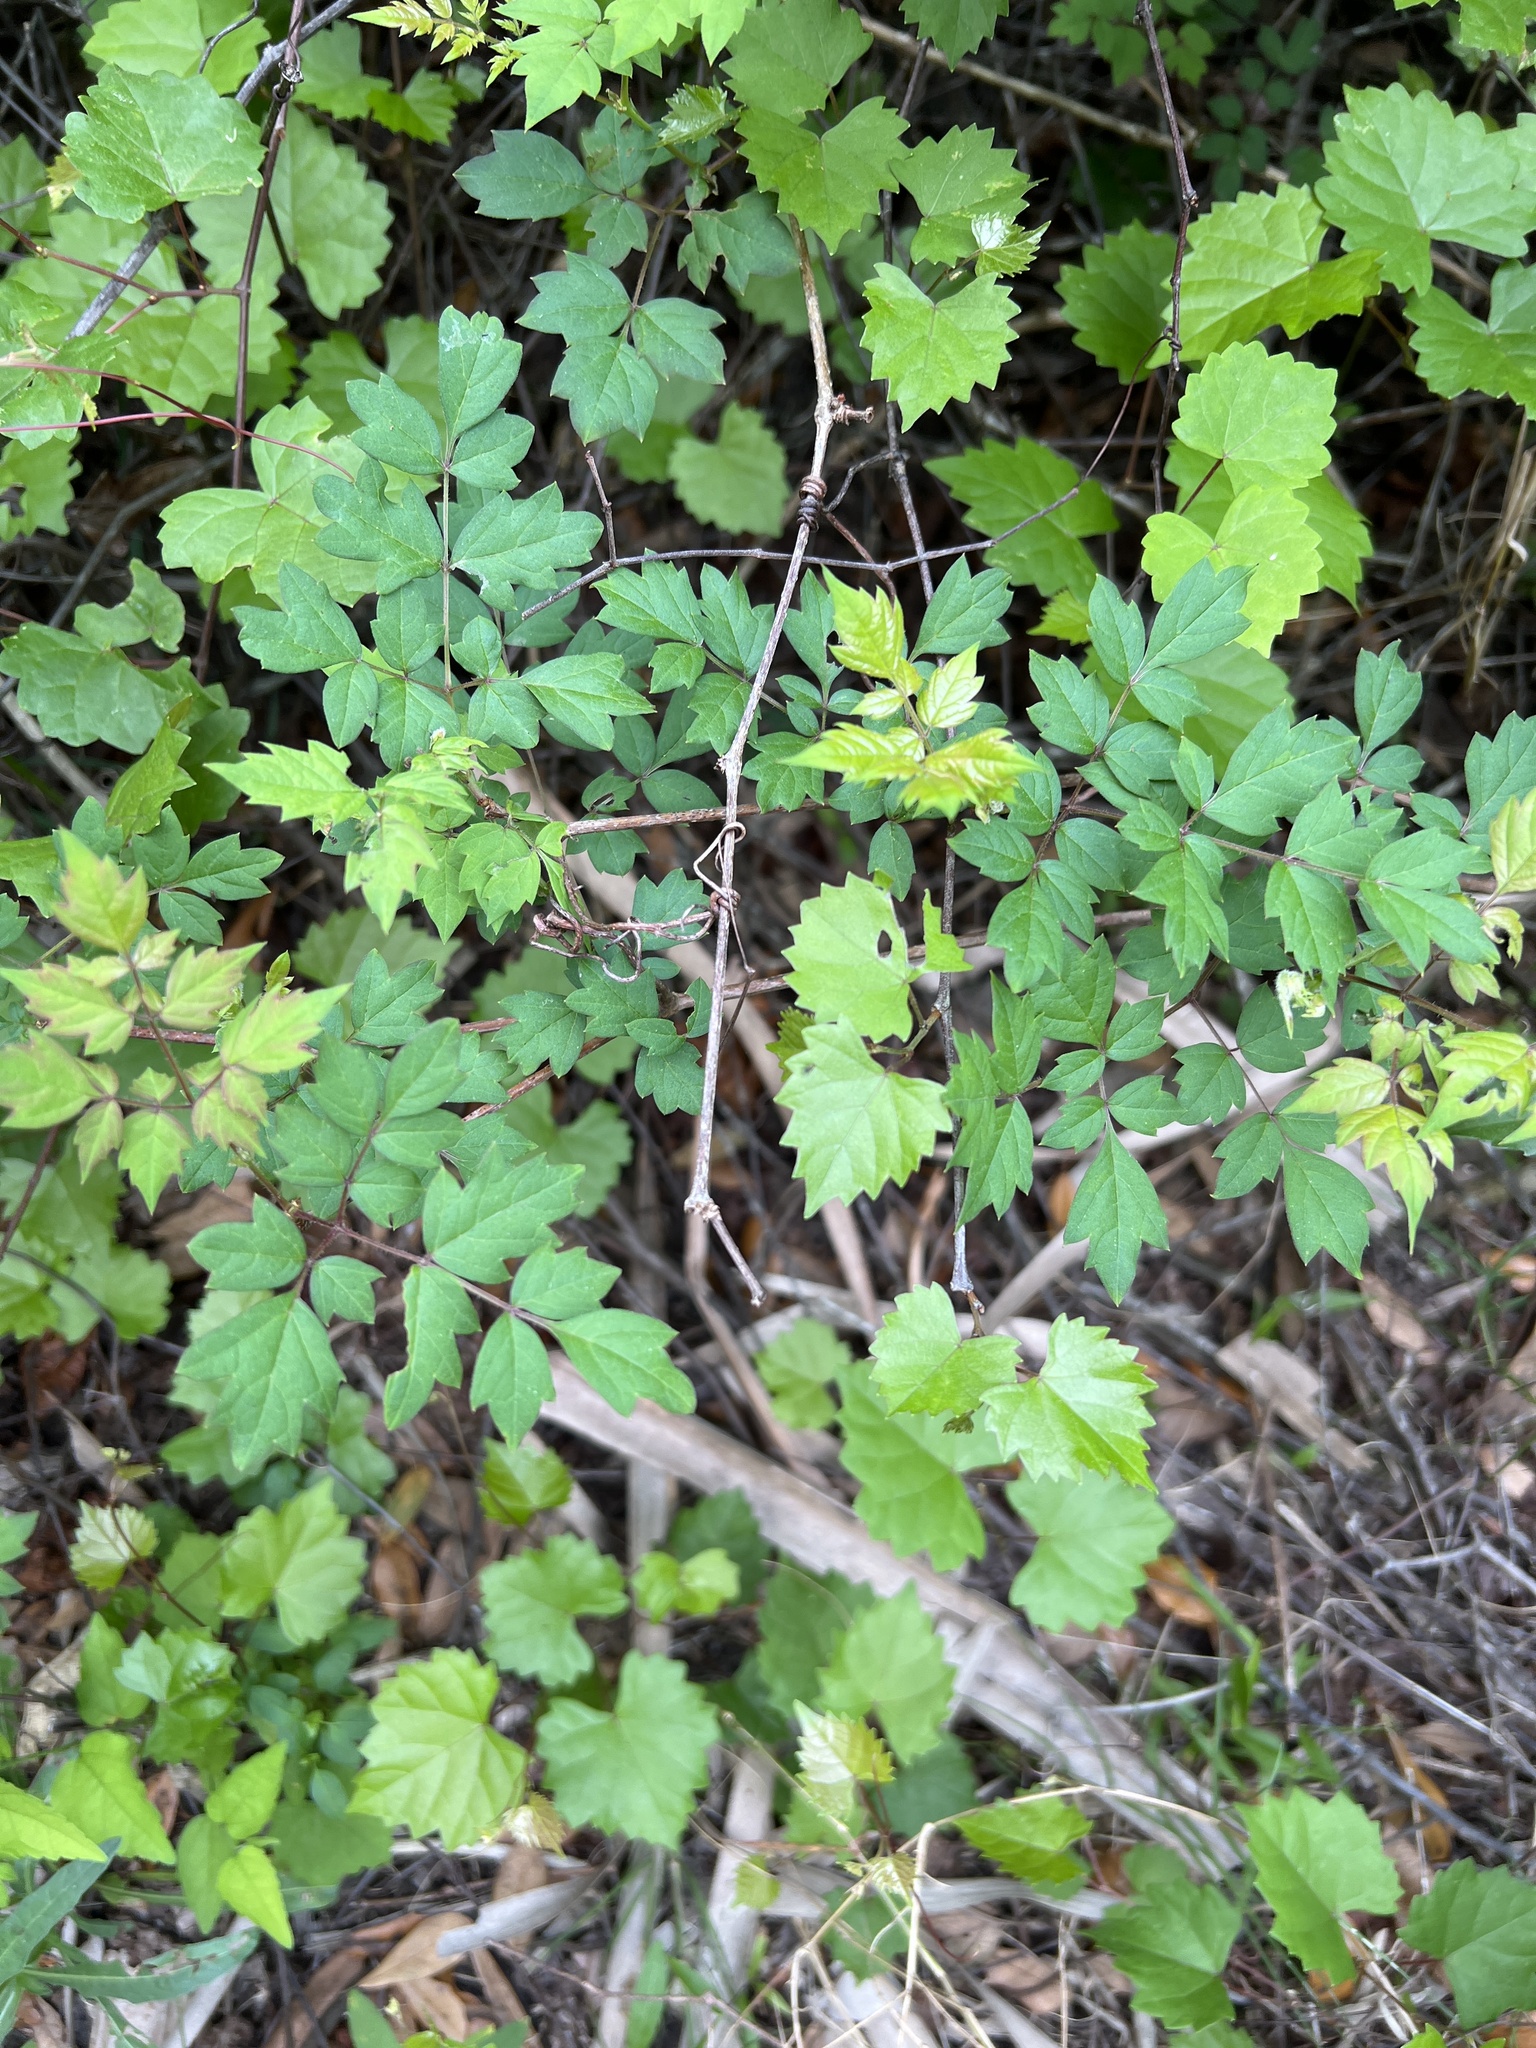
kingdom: Plantae
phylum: Tracheophyta
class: Magnoliopsida
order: Vitales
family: Vitaceae
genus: Nekemias
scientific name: Nekemias arborea
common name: Peppervine
